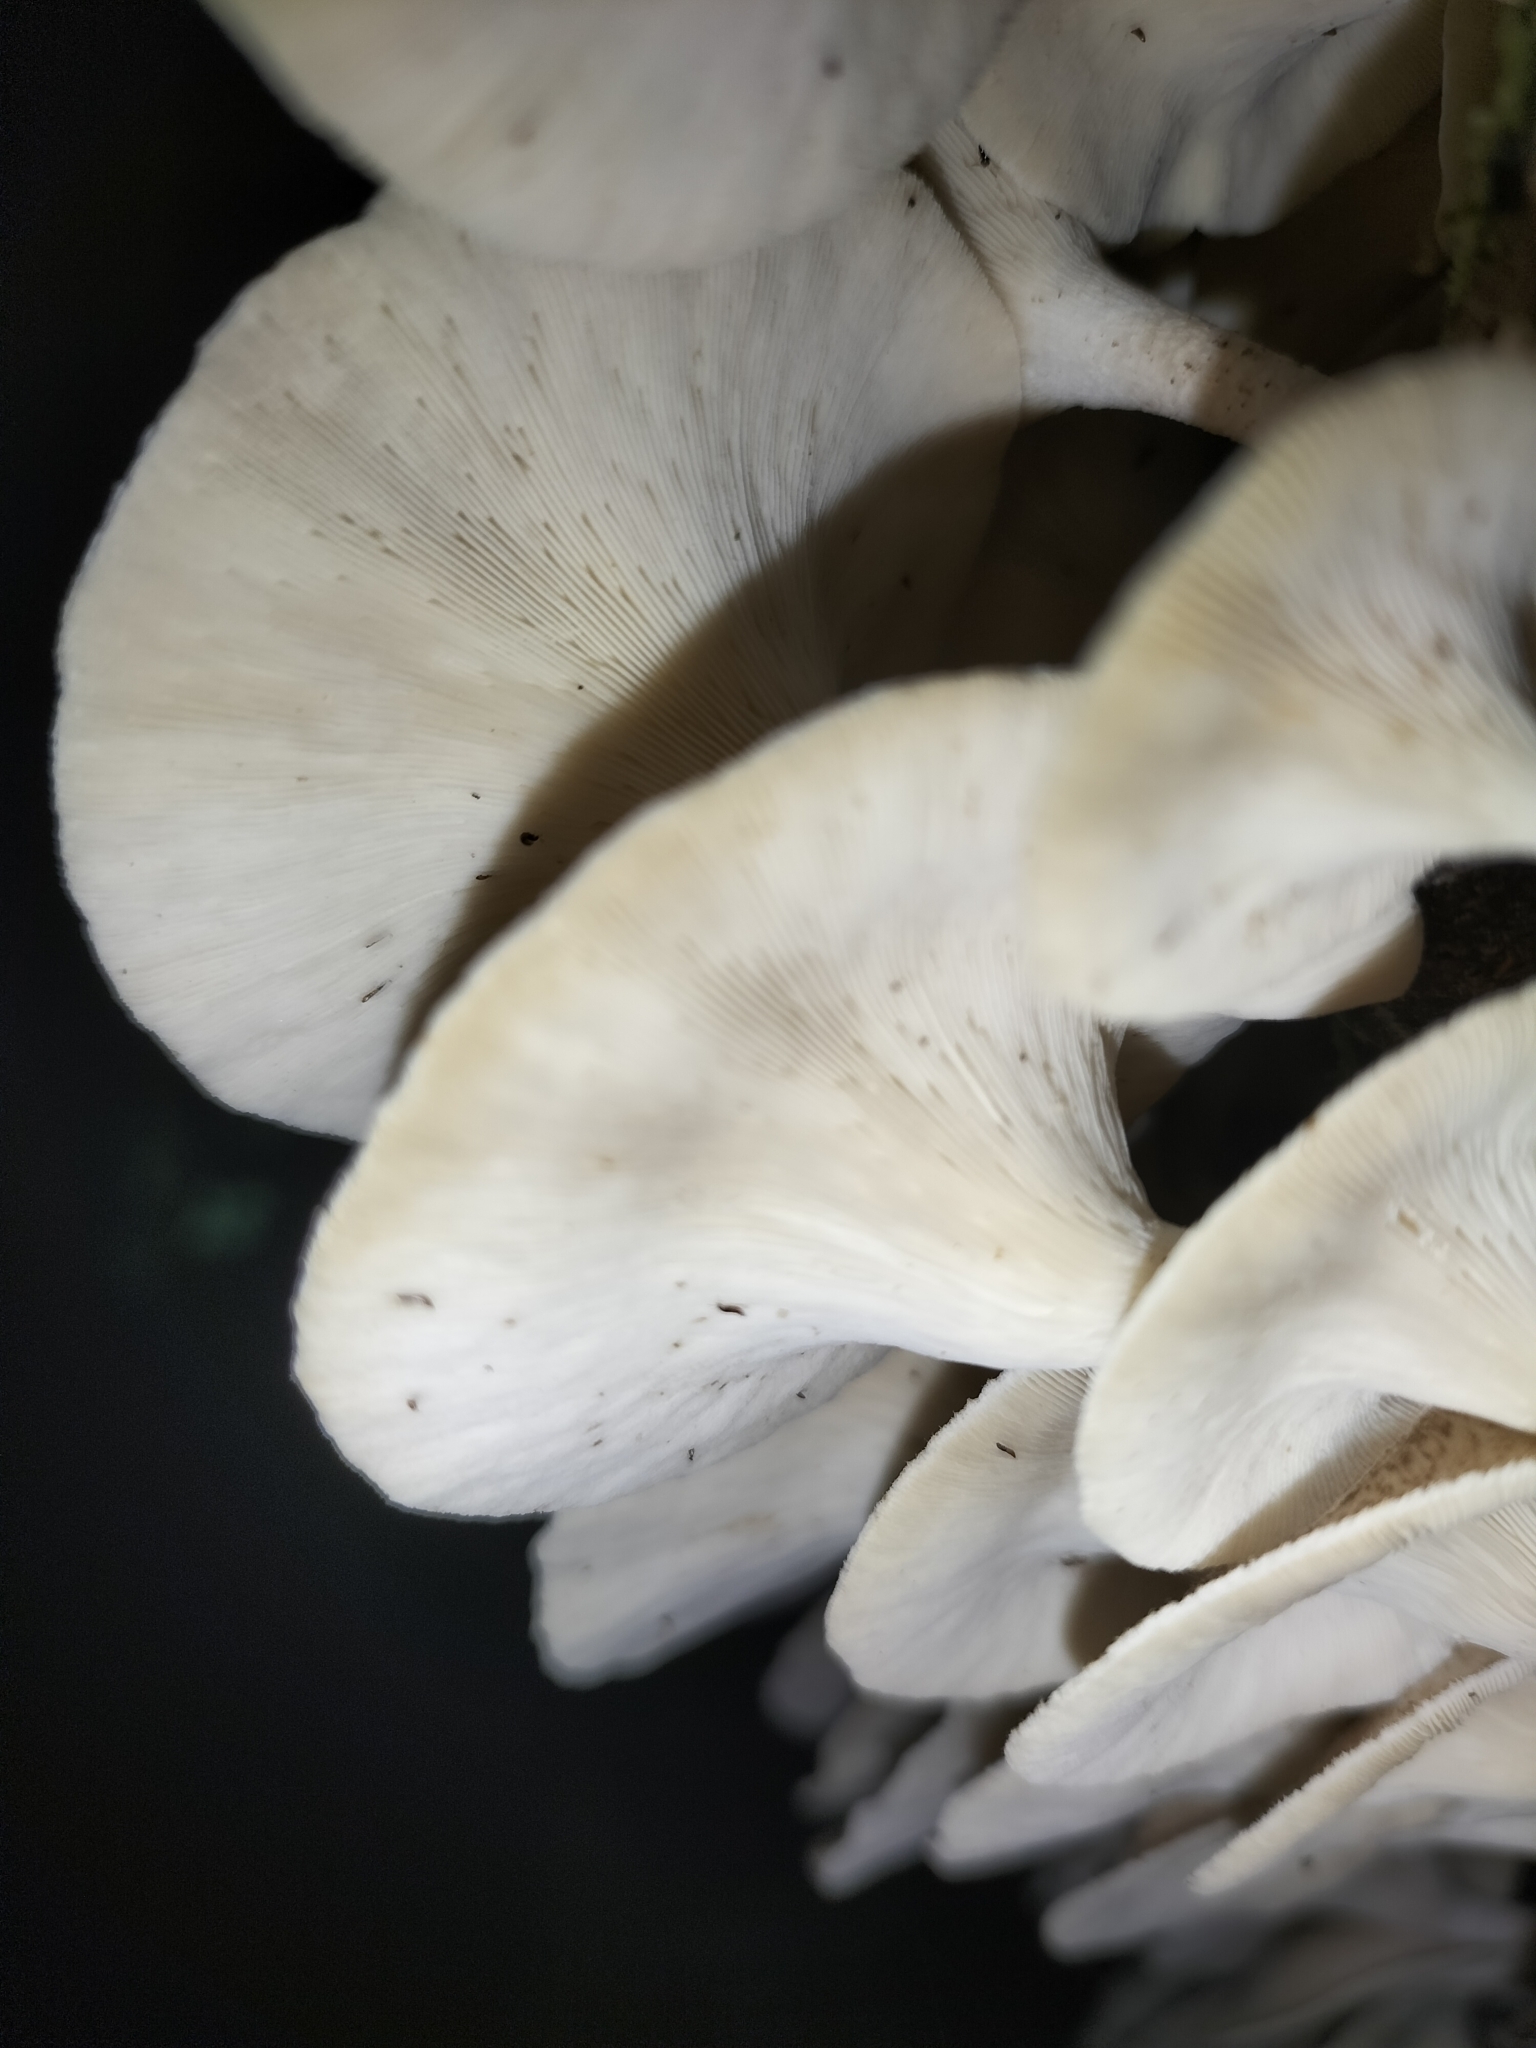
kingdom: Fungi
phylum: Basidiomycota
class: Agaricomycetes
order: Polyporales
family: Polyporaceae
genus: Lentinus
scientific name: Lentinus sajor-caju
